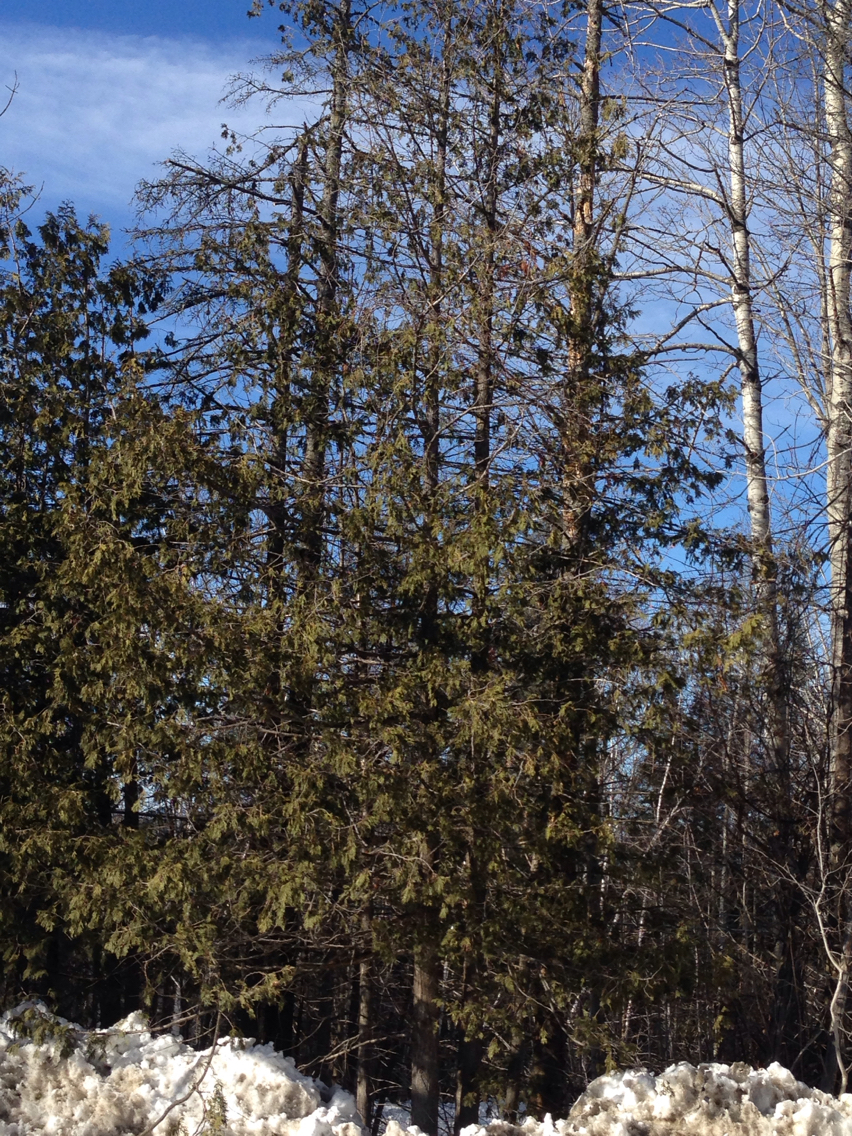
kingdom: Plantae
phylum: Tracheophyta
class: Pinopsida
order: Pinales
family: Cupressaceae
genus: Thuja
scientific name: Thuja occidentalis
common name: Northern white-cedar
